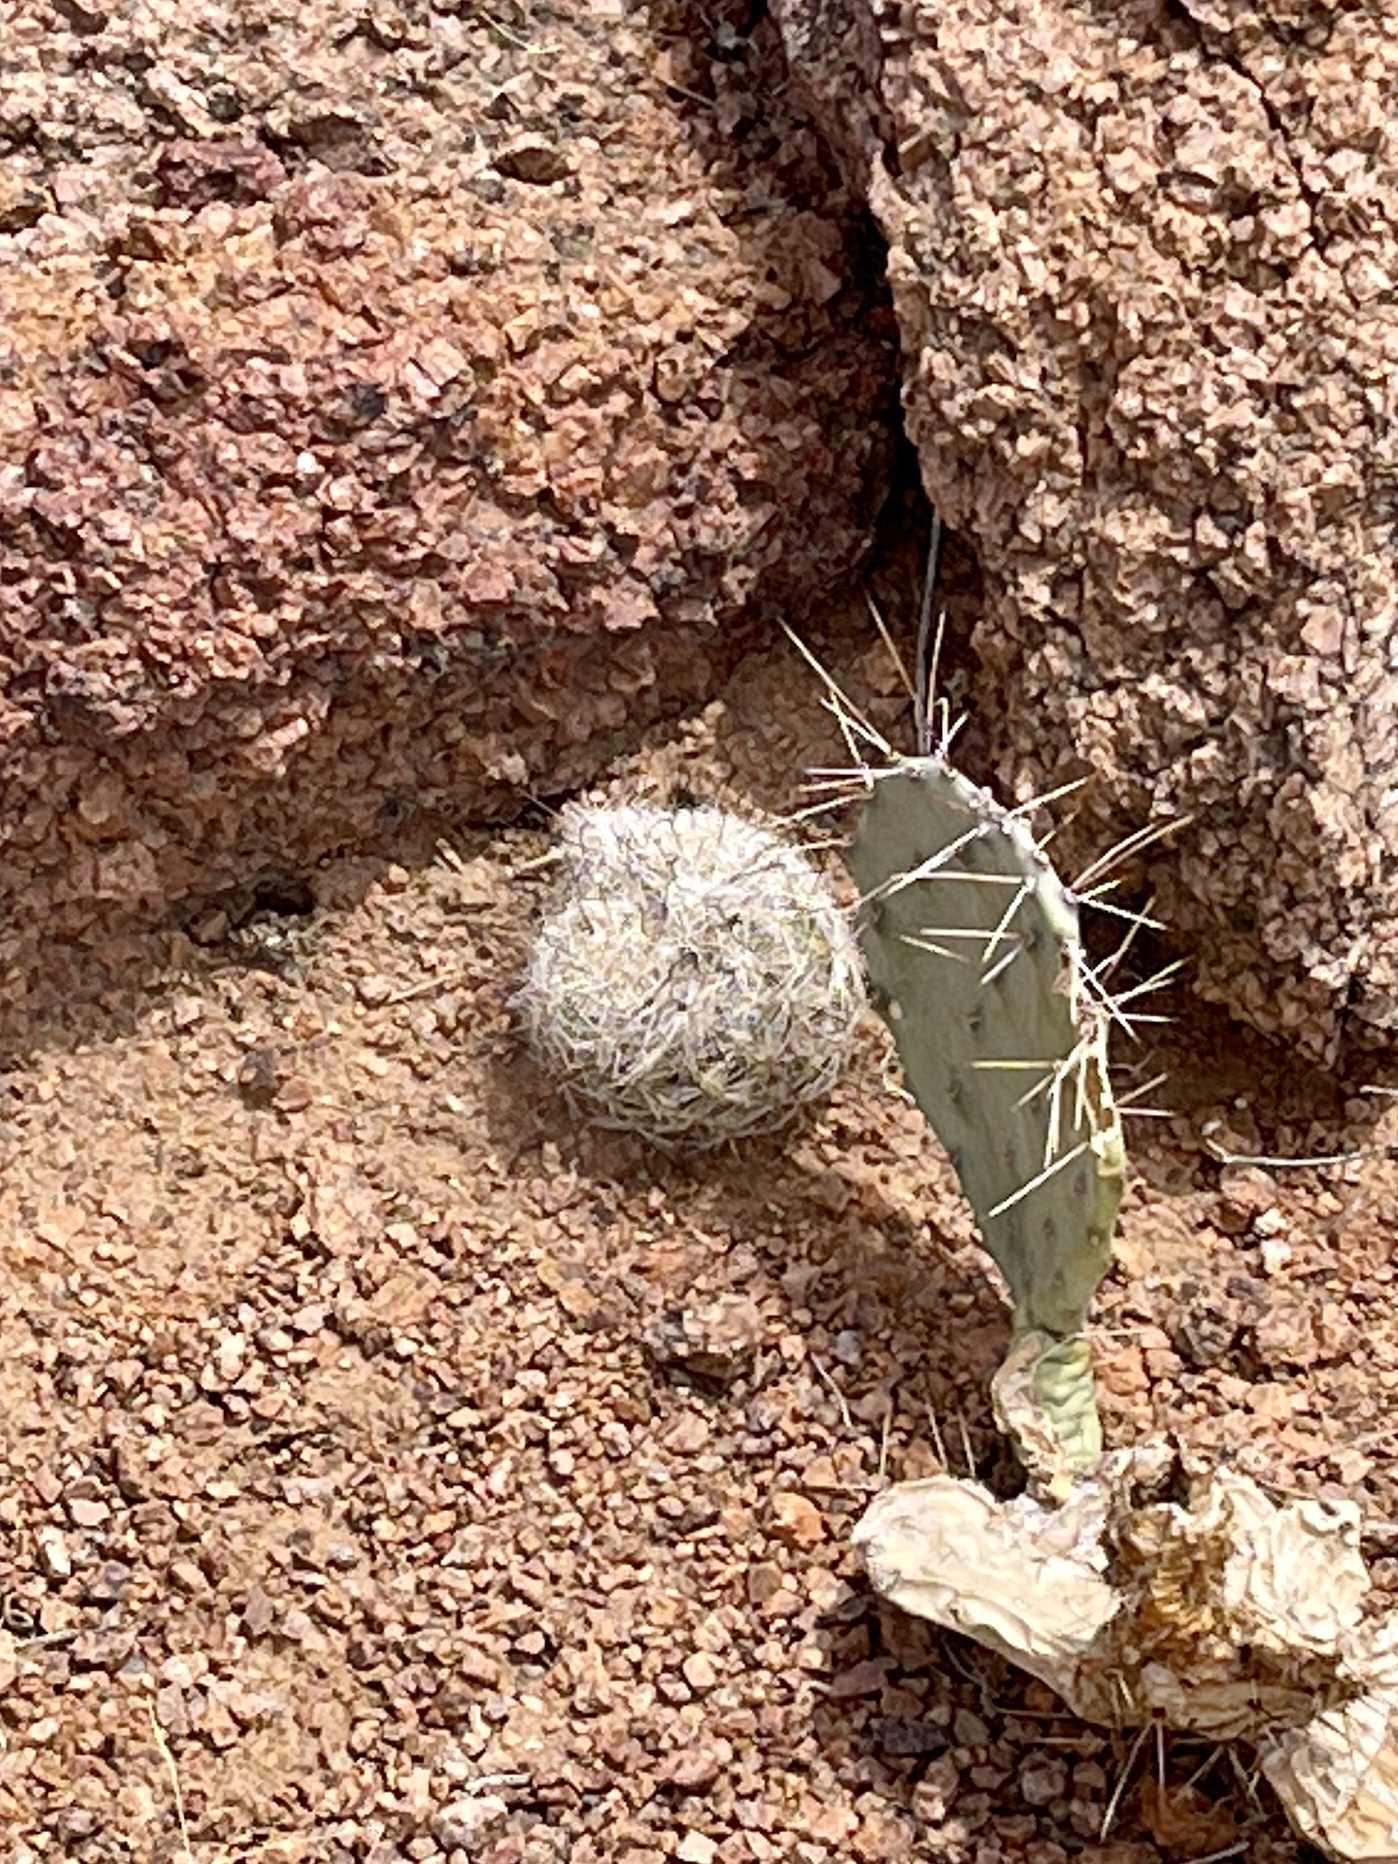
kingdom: Plantae
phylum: Tracheophyta
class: Magnoliopsida
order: Caryophyllales
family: Cactaceae
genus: Cochemiea
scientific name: Cochemiea grahamii
